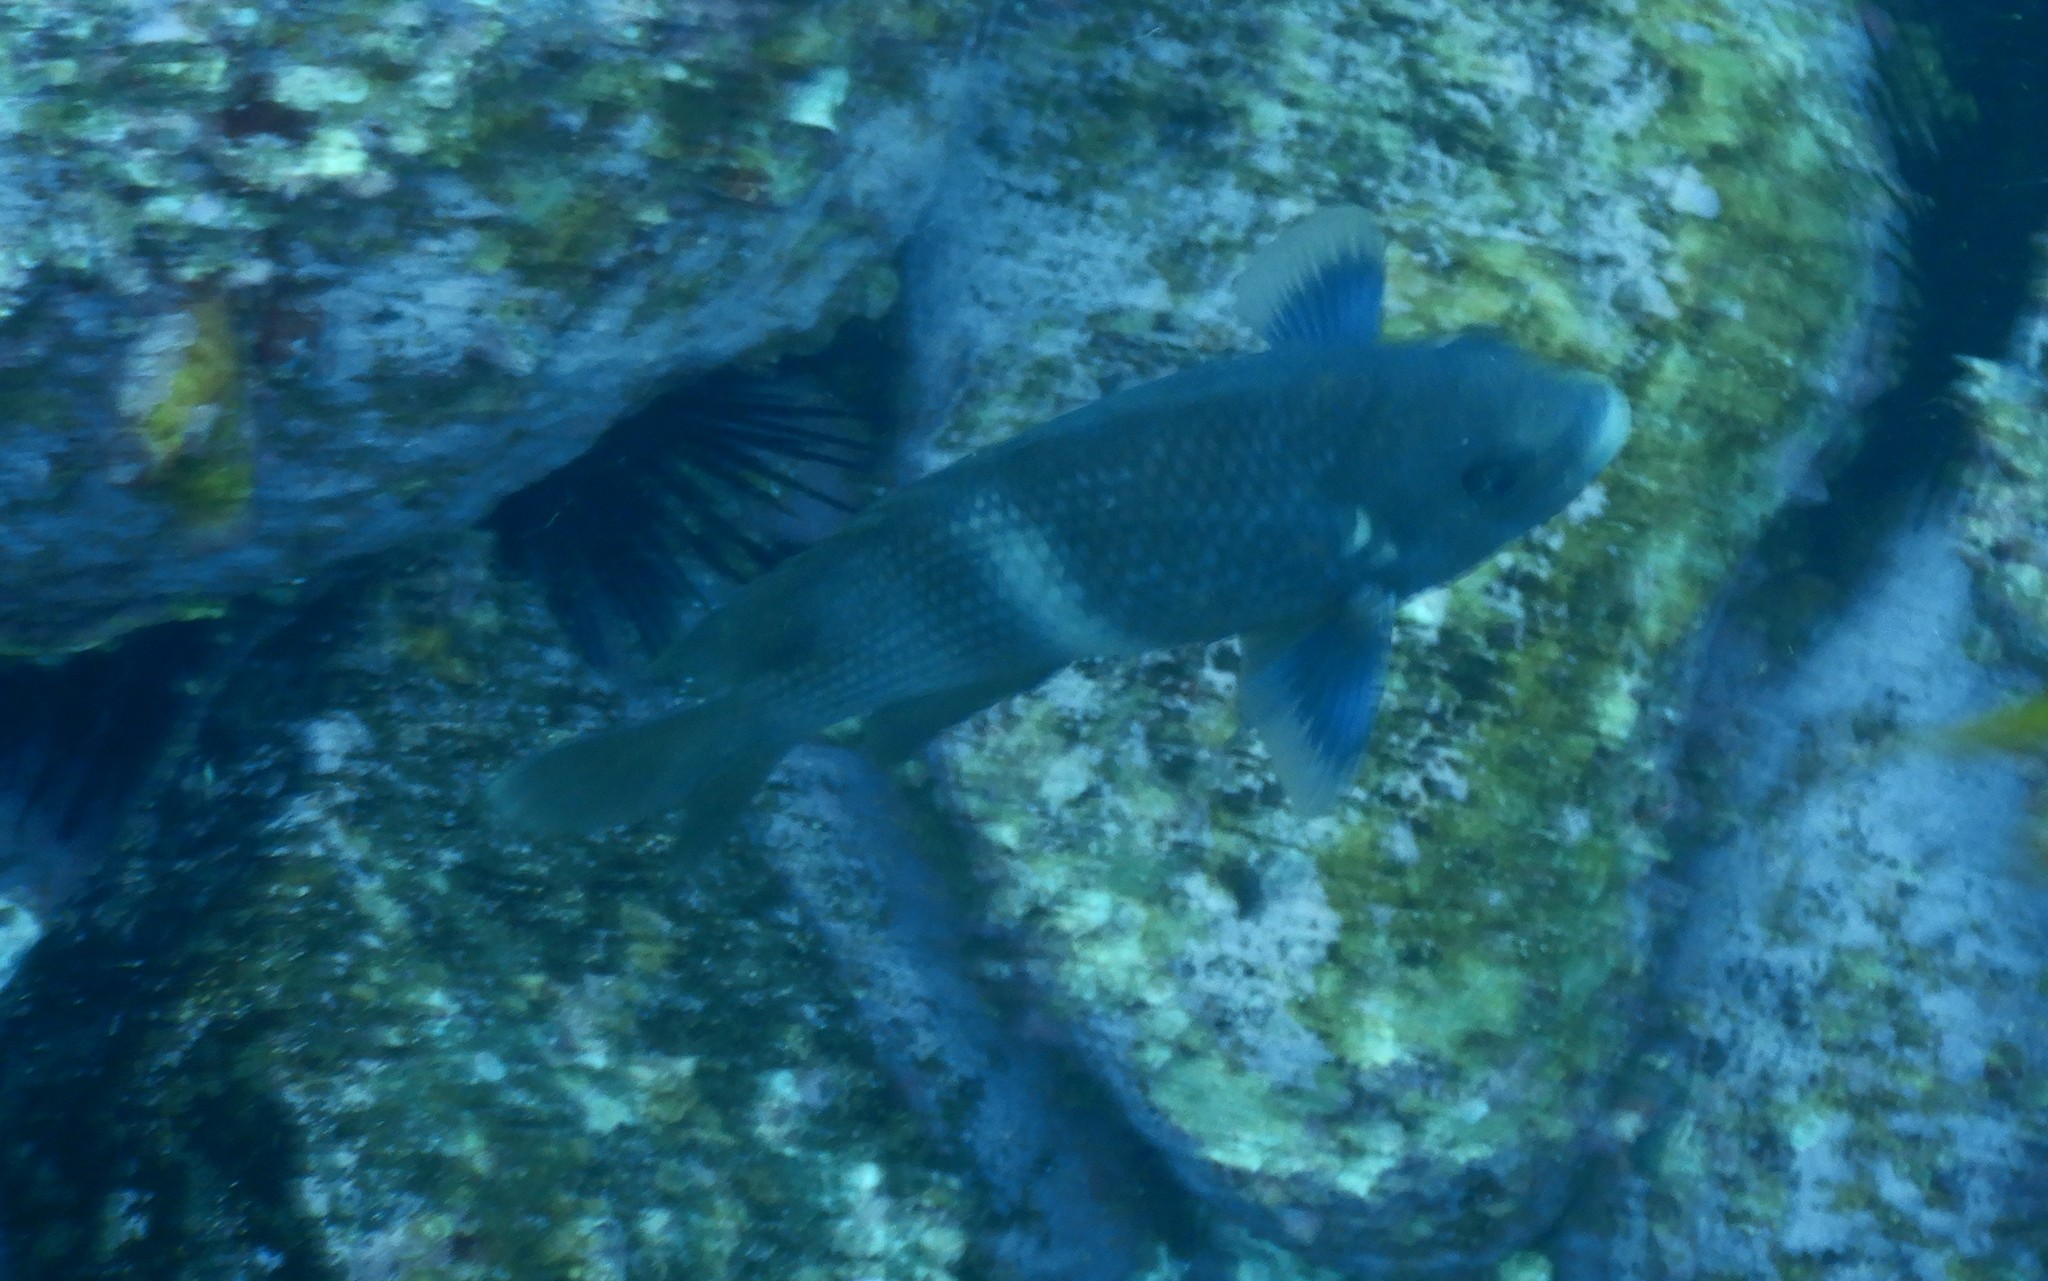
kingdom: Animalia
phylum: Chordata
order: Perciformes
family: Pomacentridae
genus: Parma
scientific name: Parma unifasciata
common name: Girdled parma
